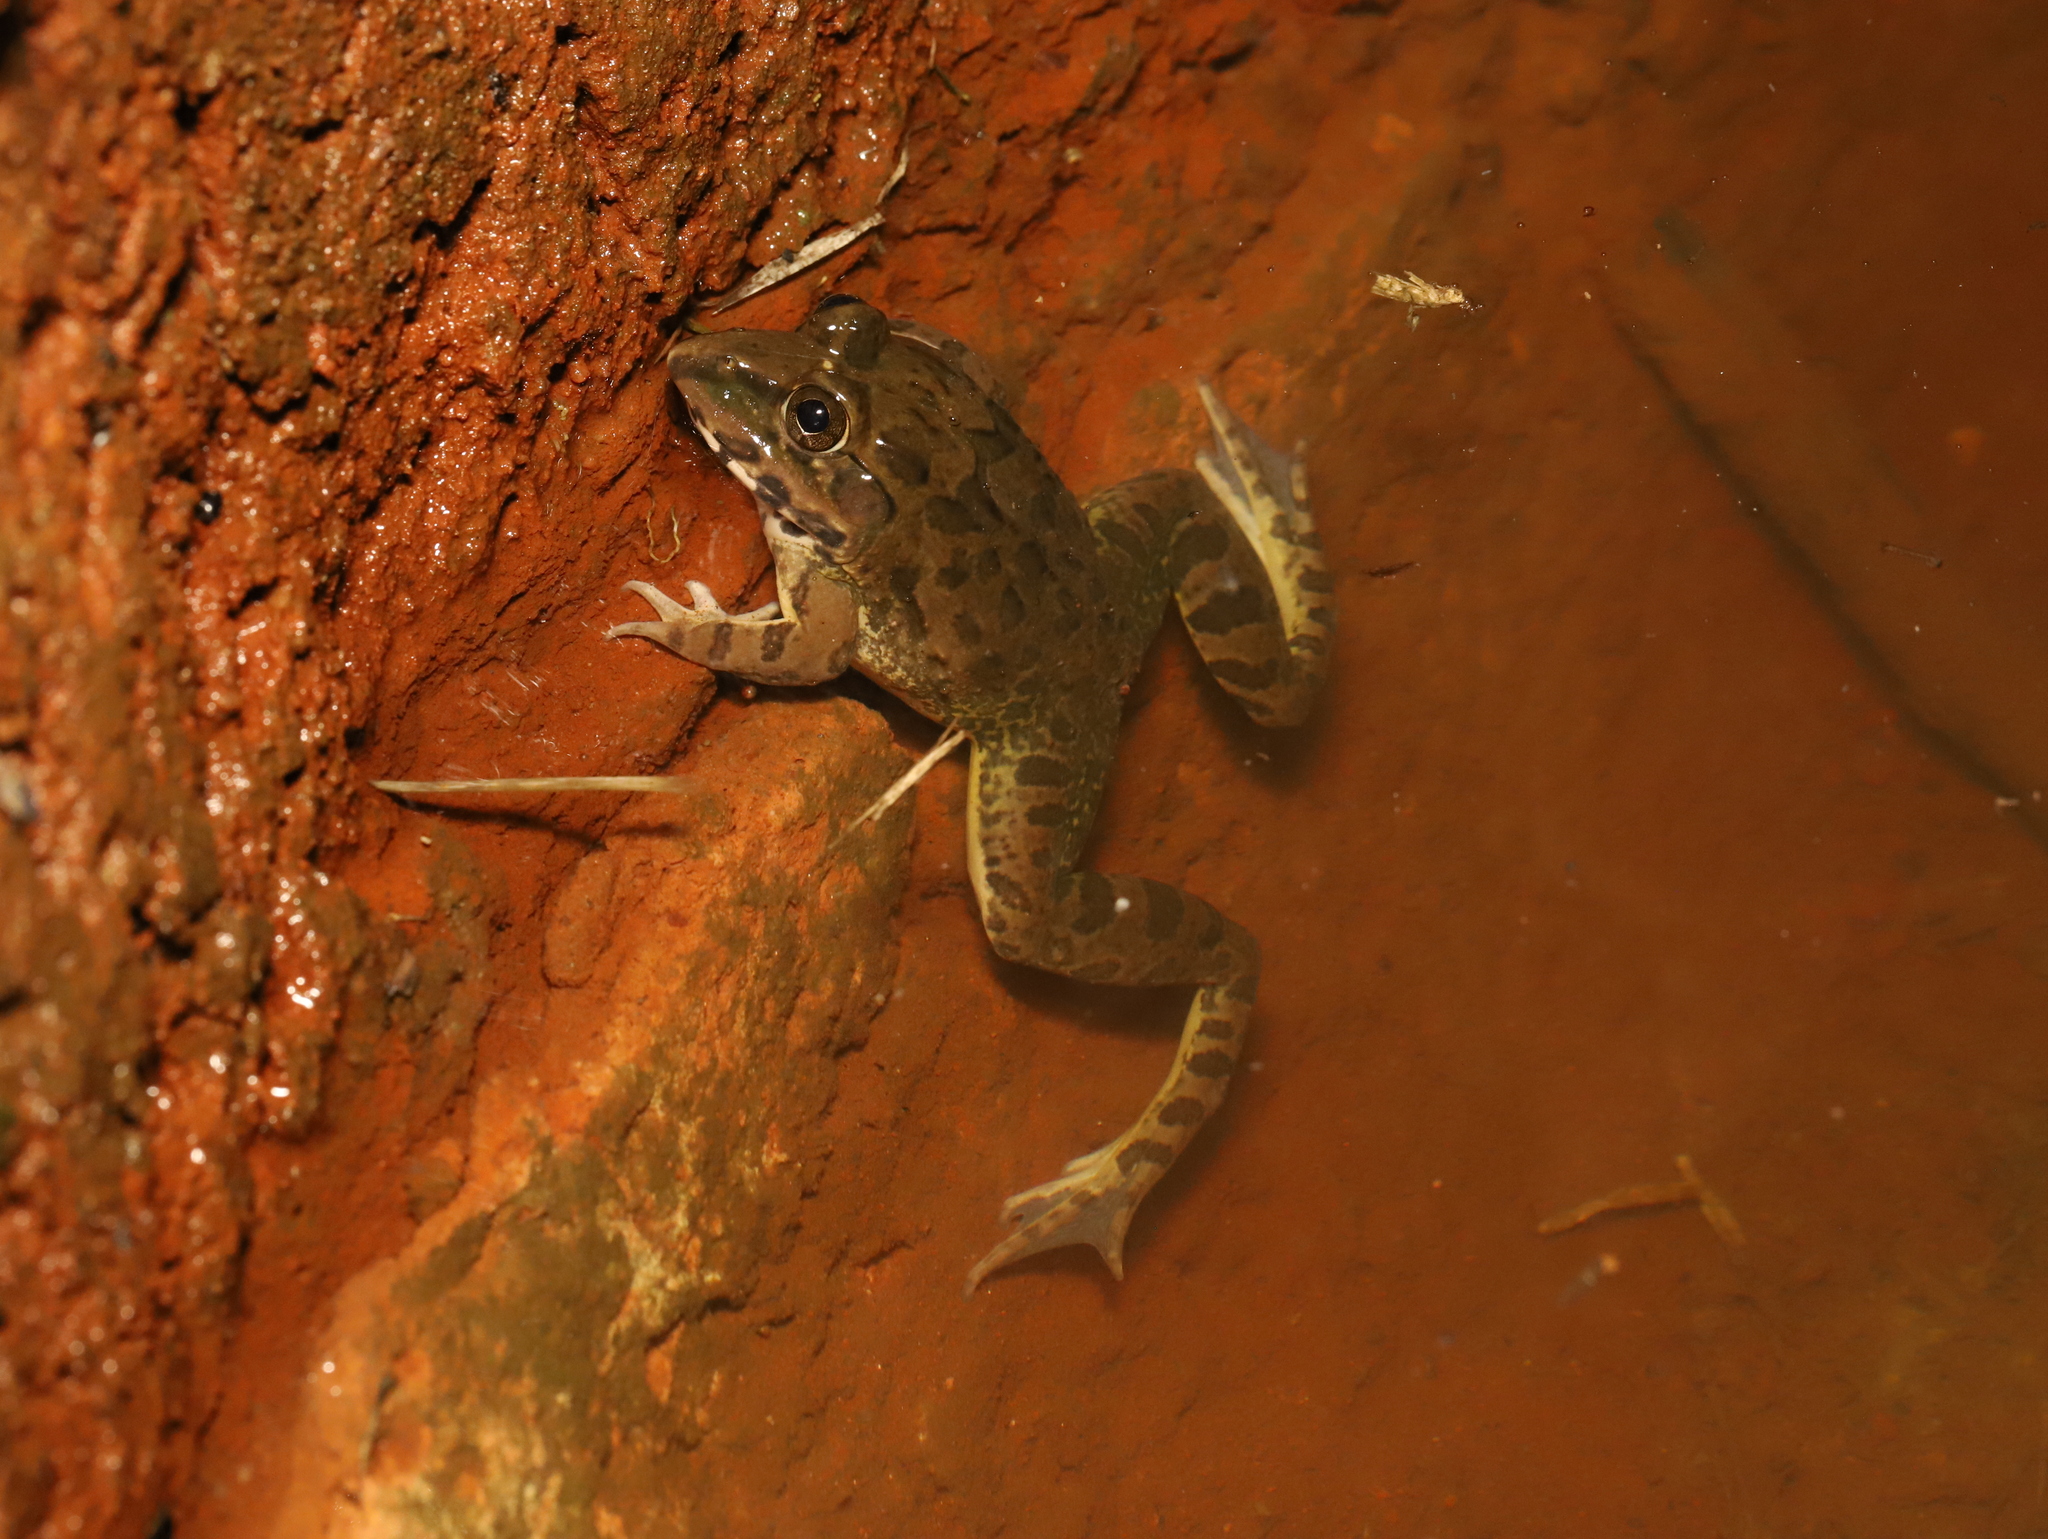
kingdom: Animalia
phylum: Chordata
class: Amphibia
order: Anura
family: Dicroglossidae
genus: Hoplobatrachus
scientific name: Hoplobatrachus crassus
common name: Jerdon's bullfrog
